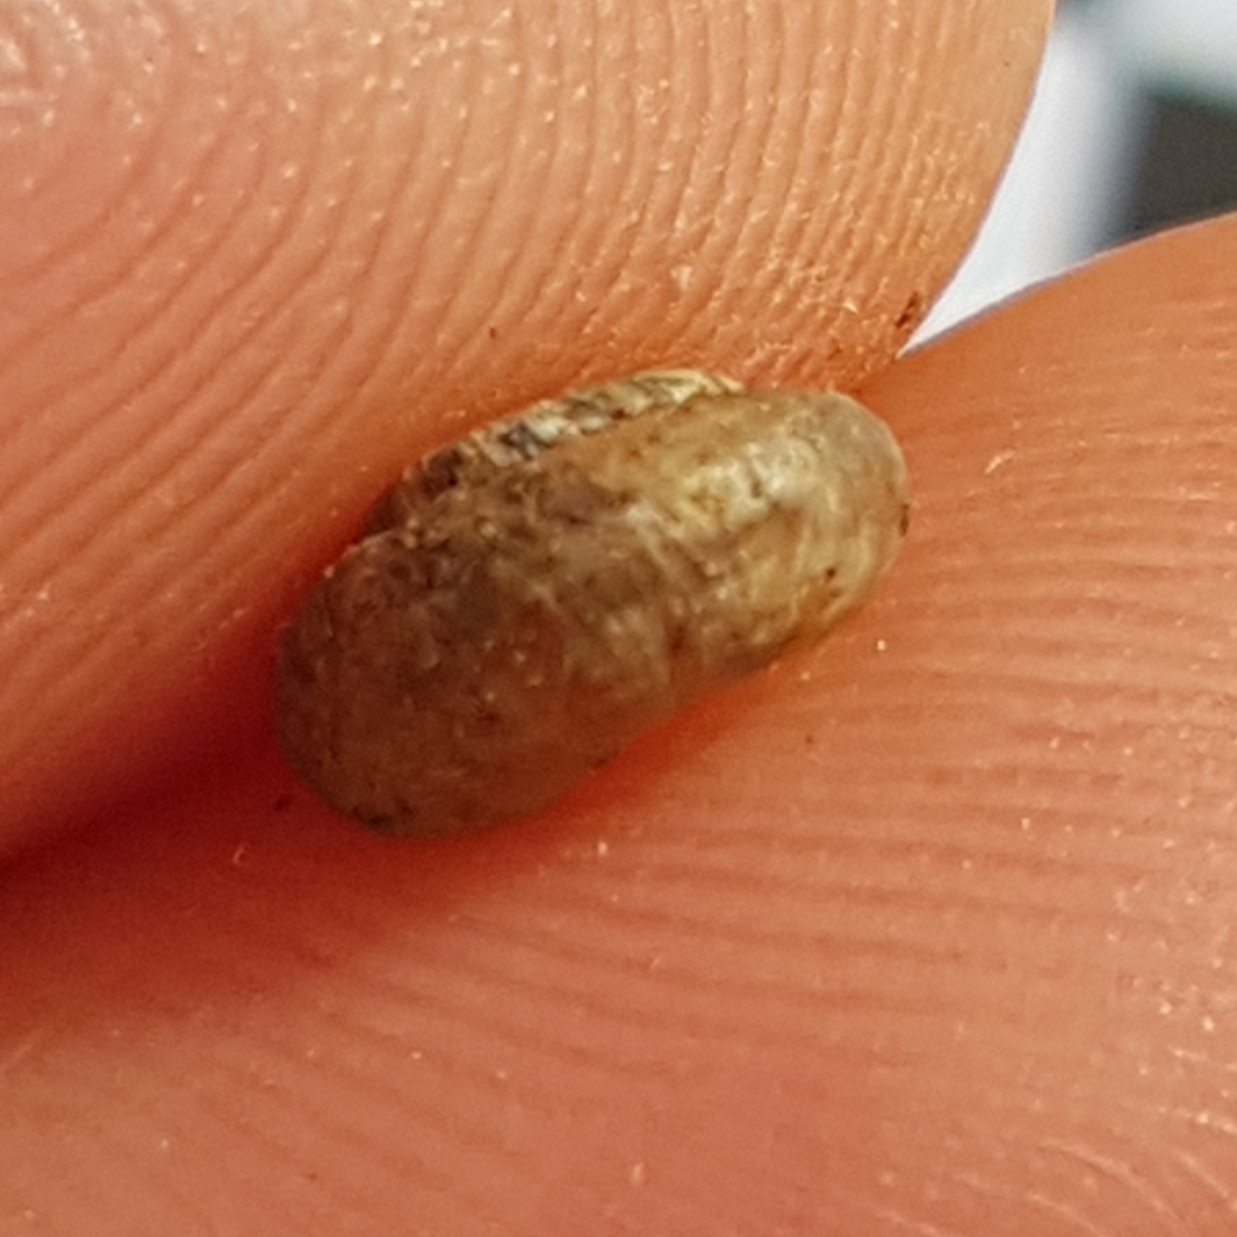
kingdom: Animalia
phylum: Mollusca
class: Gastropoda
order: Stylommatophora
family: Geomitridae
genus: Xerotricha
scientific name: Xerotricha conspurcata
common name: Snail
